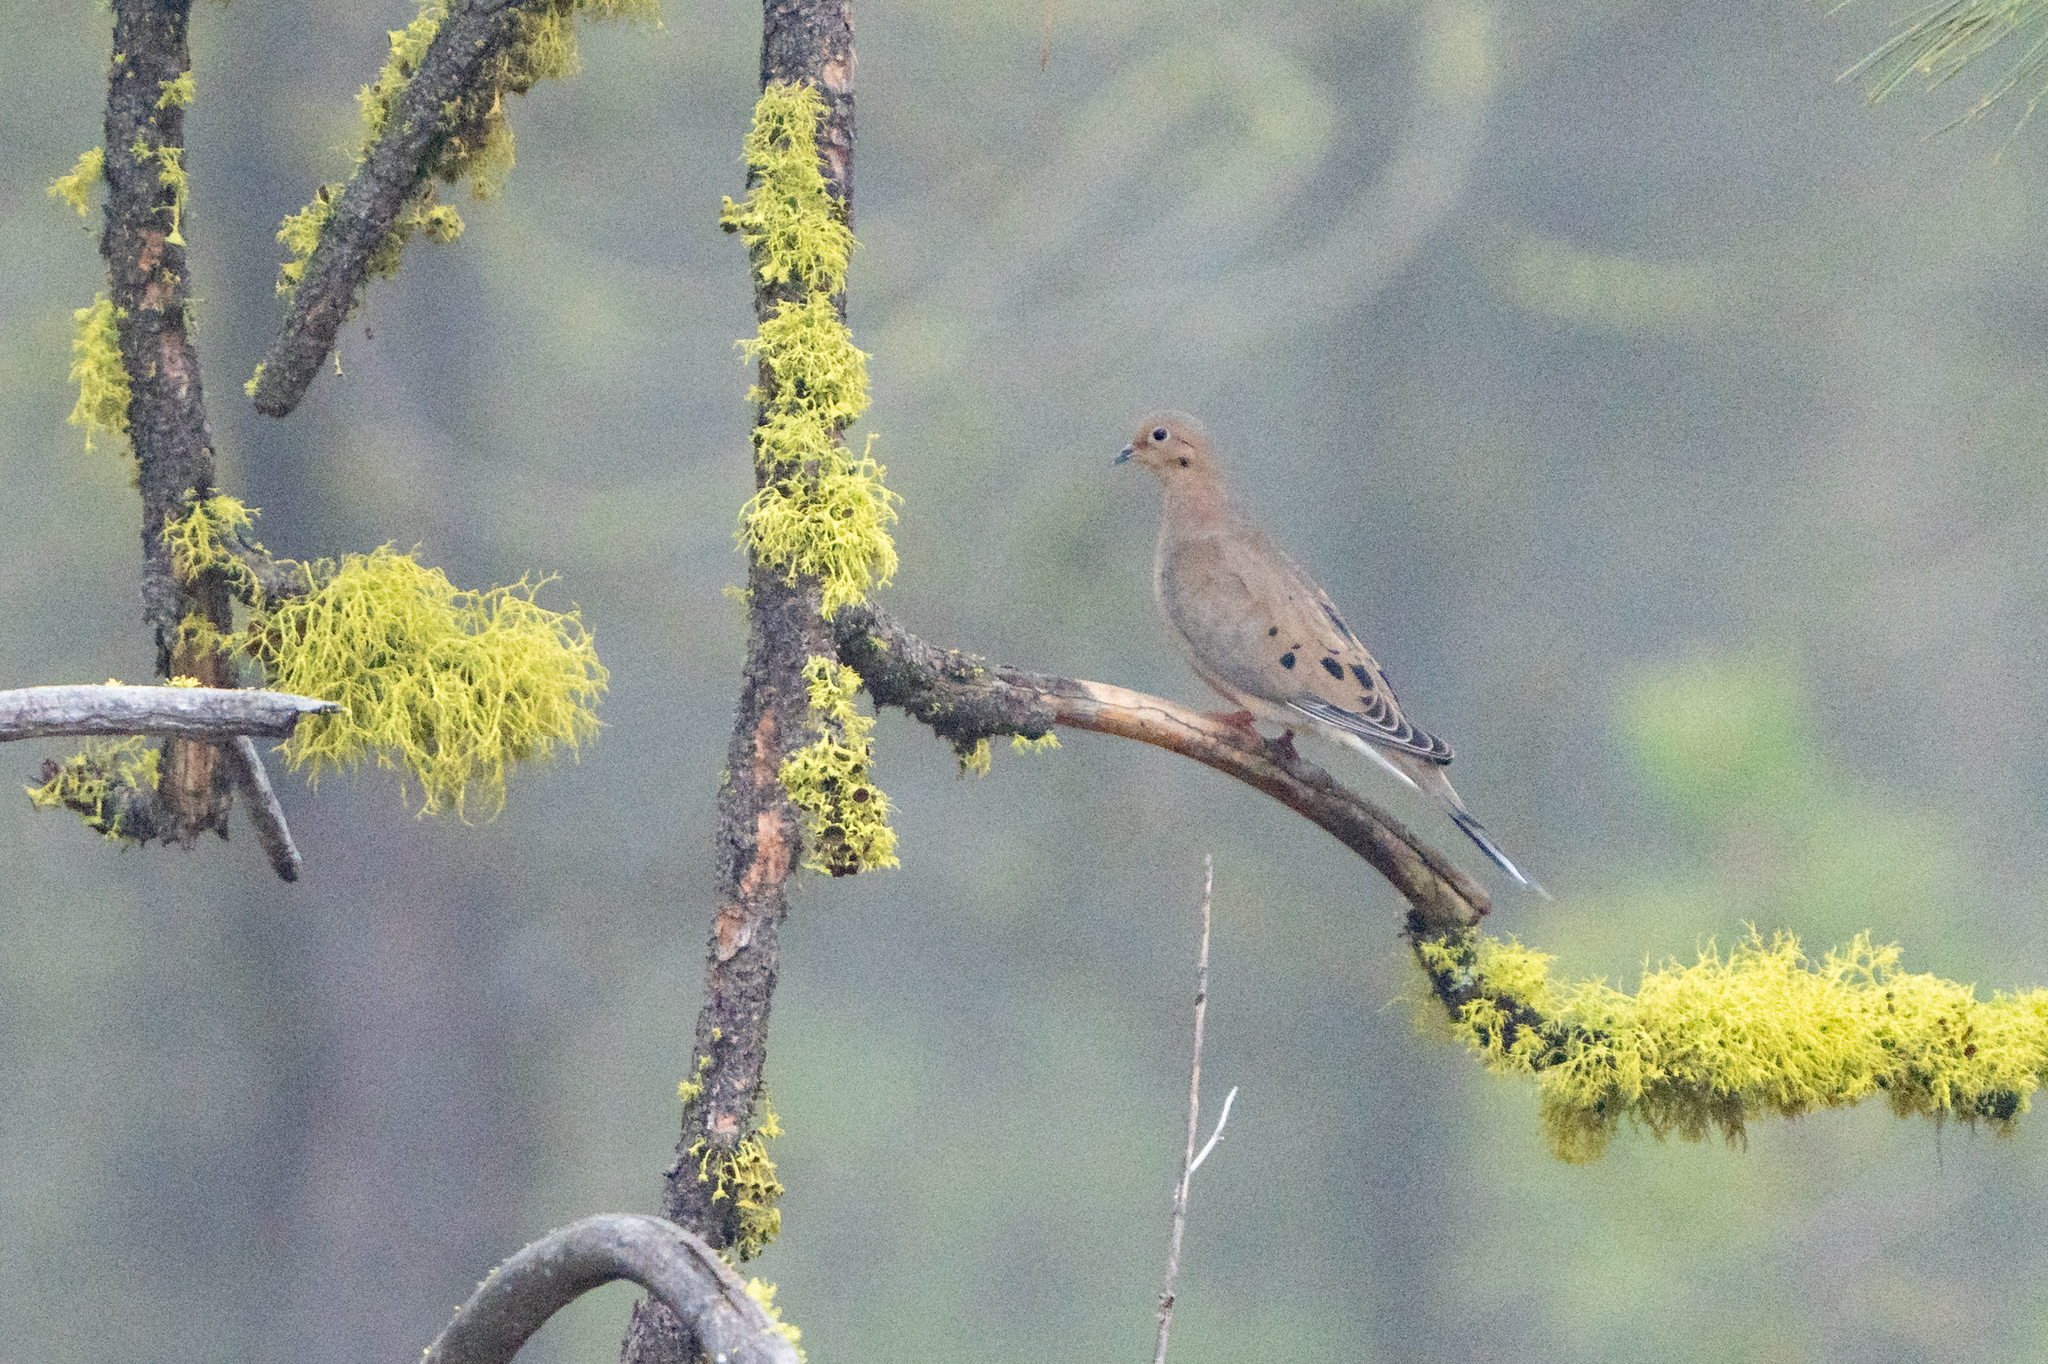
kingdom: Animalia
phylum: Chordata
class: Aves
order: Columbiformes
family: Columbidae
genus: Zenaida
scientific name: Zenaida macroura
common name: Mourning dove
